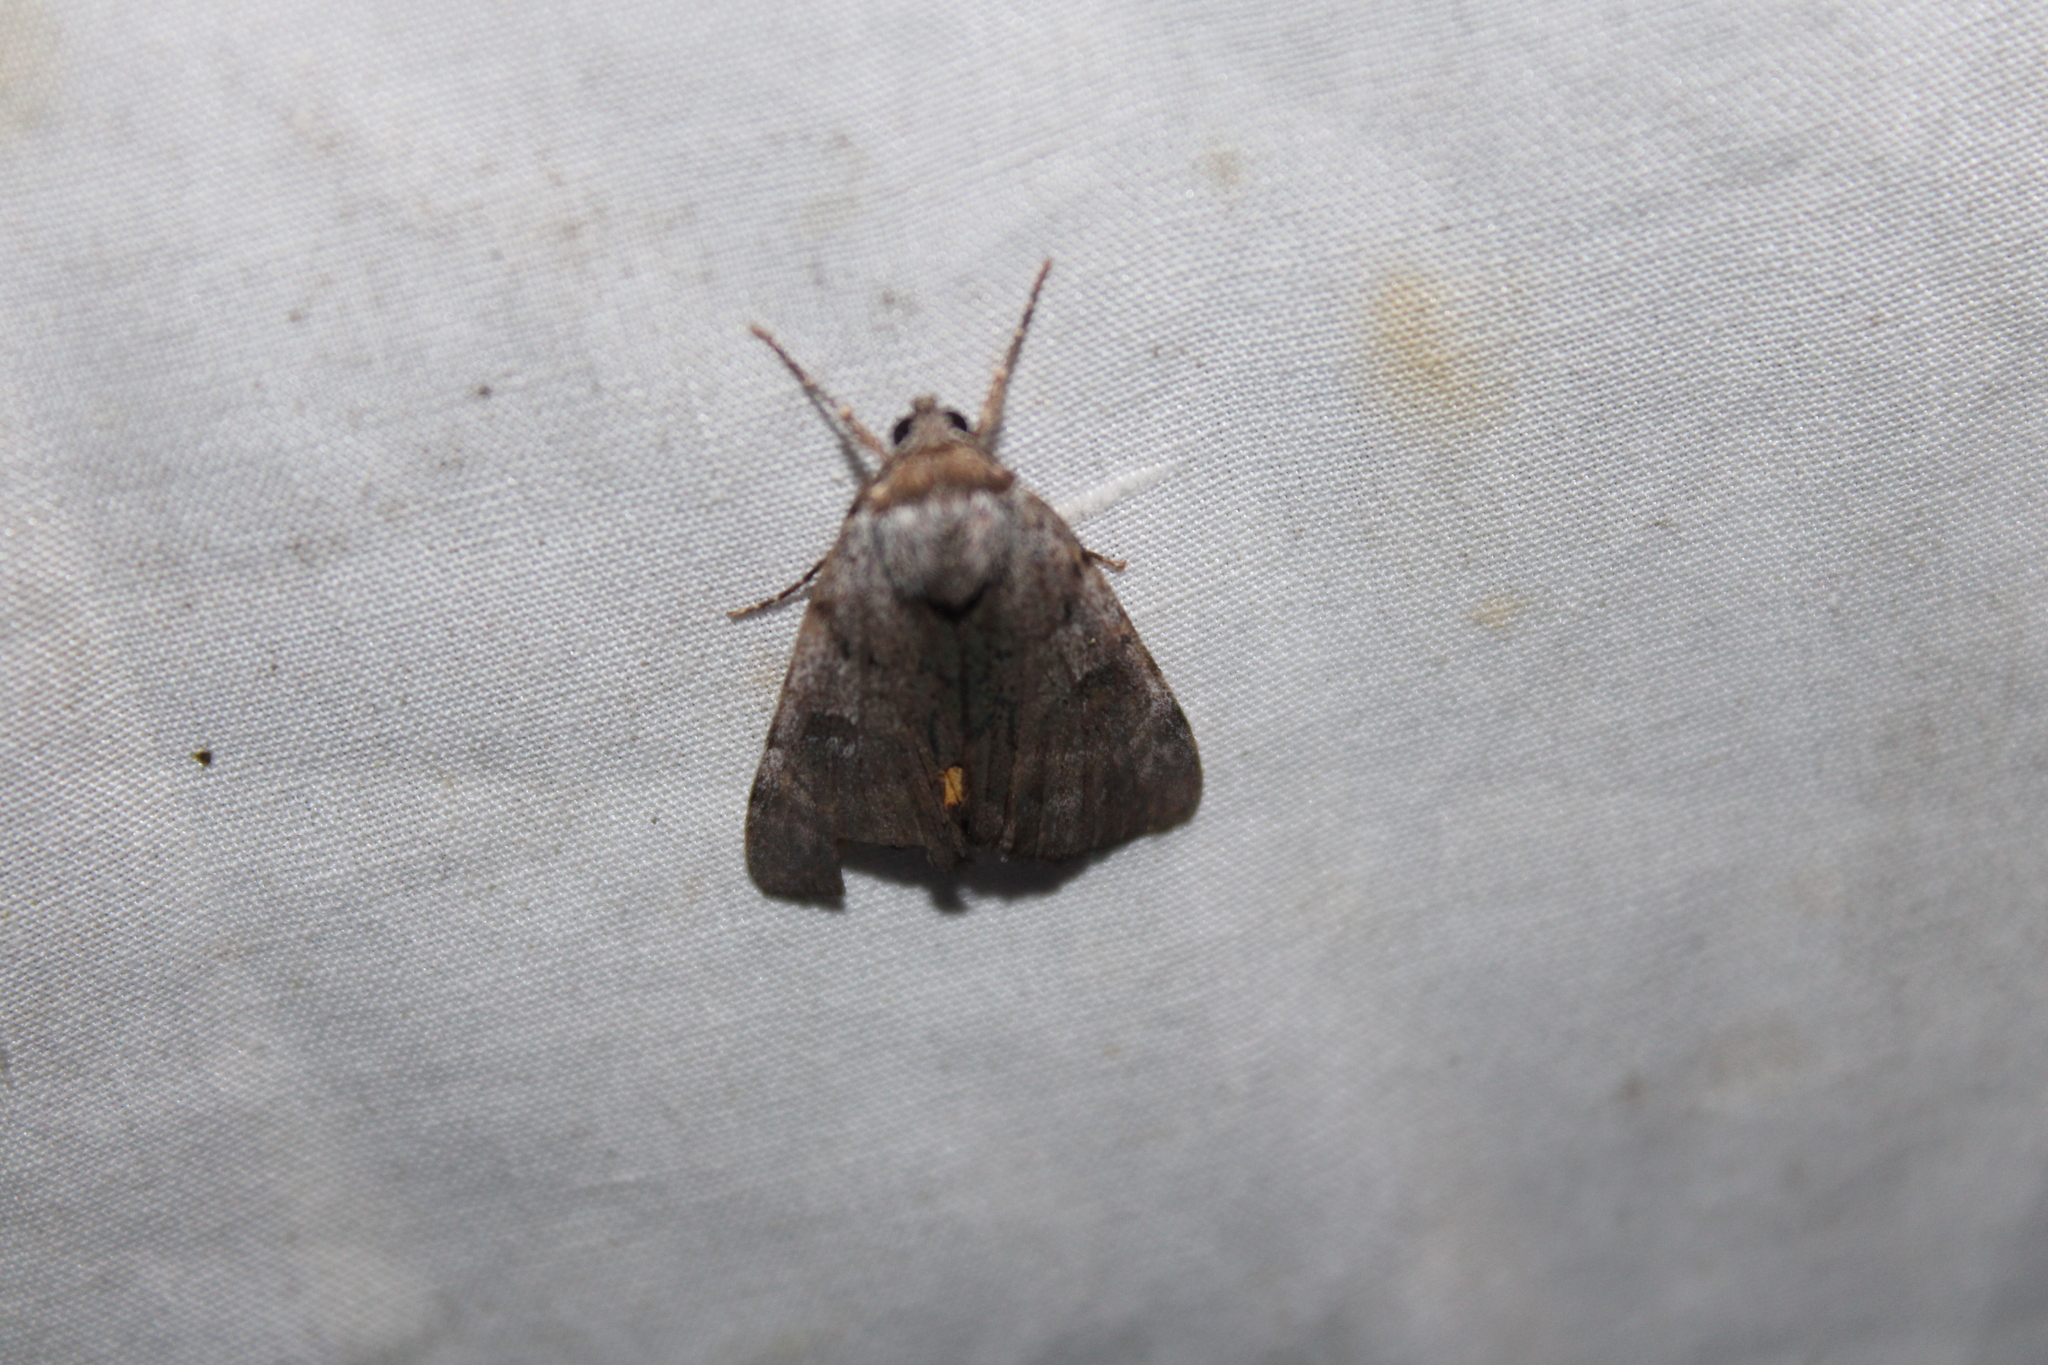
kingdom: Animalia
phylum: Arthropoda
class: Insecta
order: Lepidoptera
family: Erebidae
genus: Catocala
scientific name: Catocala sordida
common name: Sordid underwing
